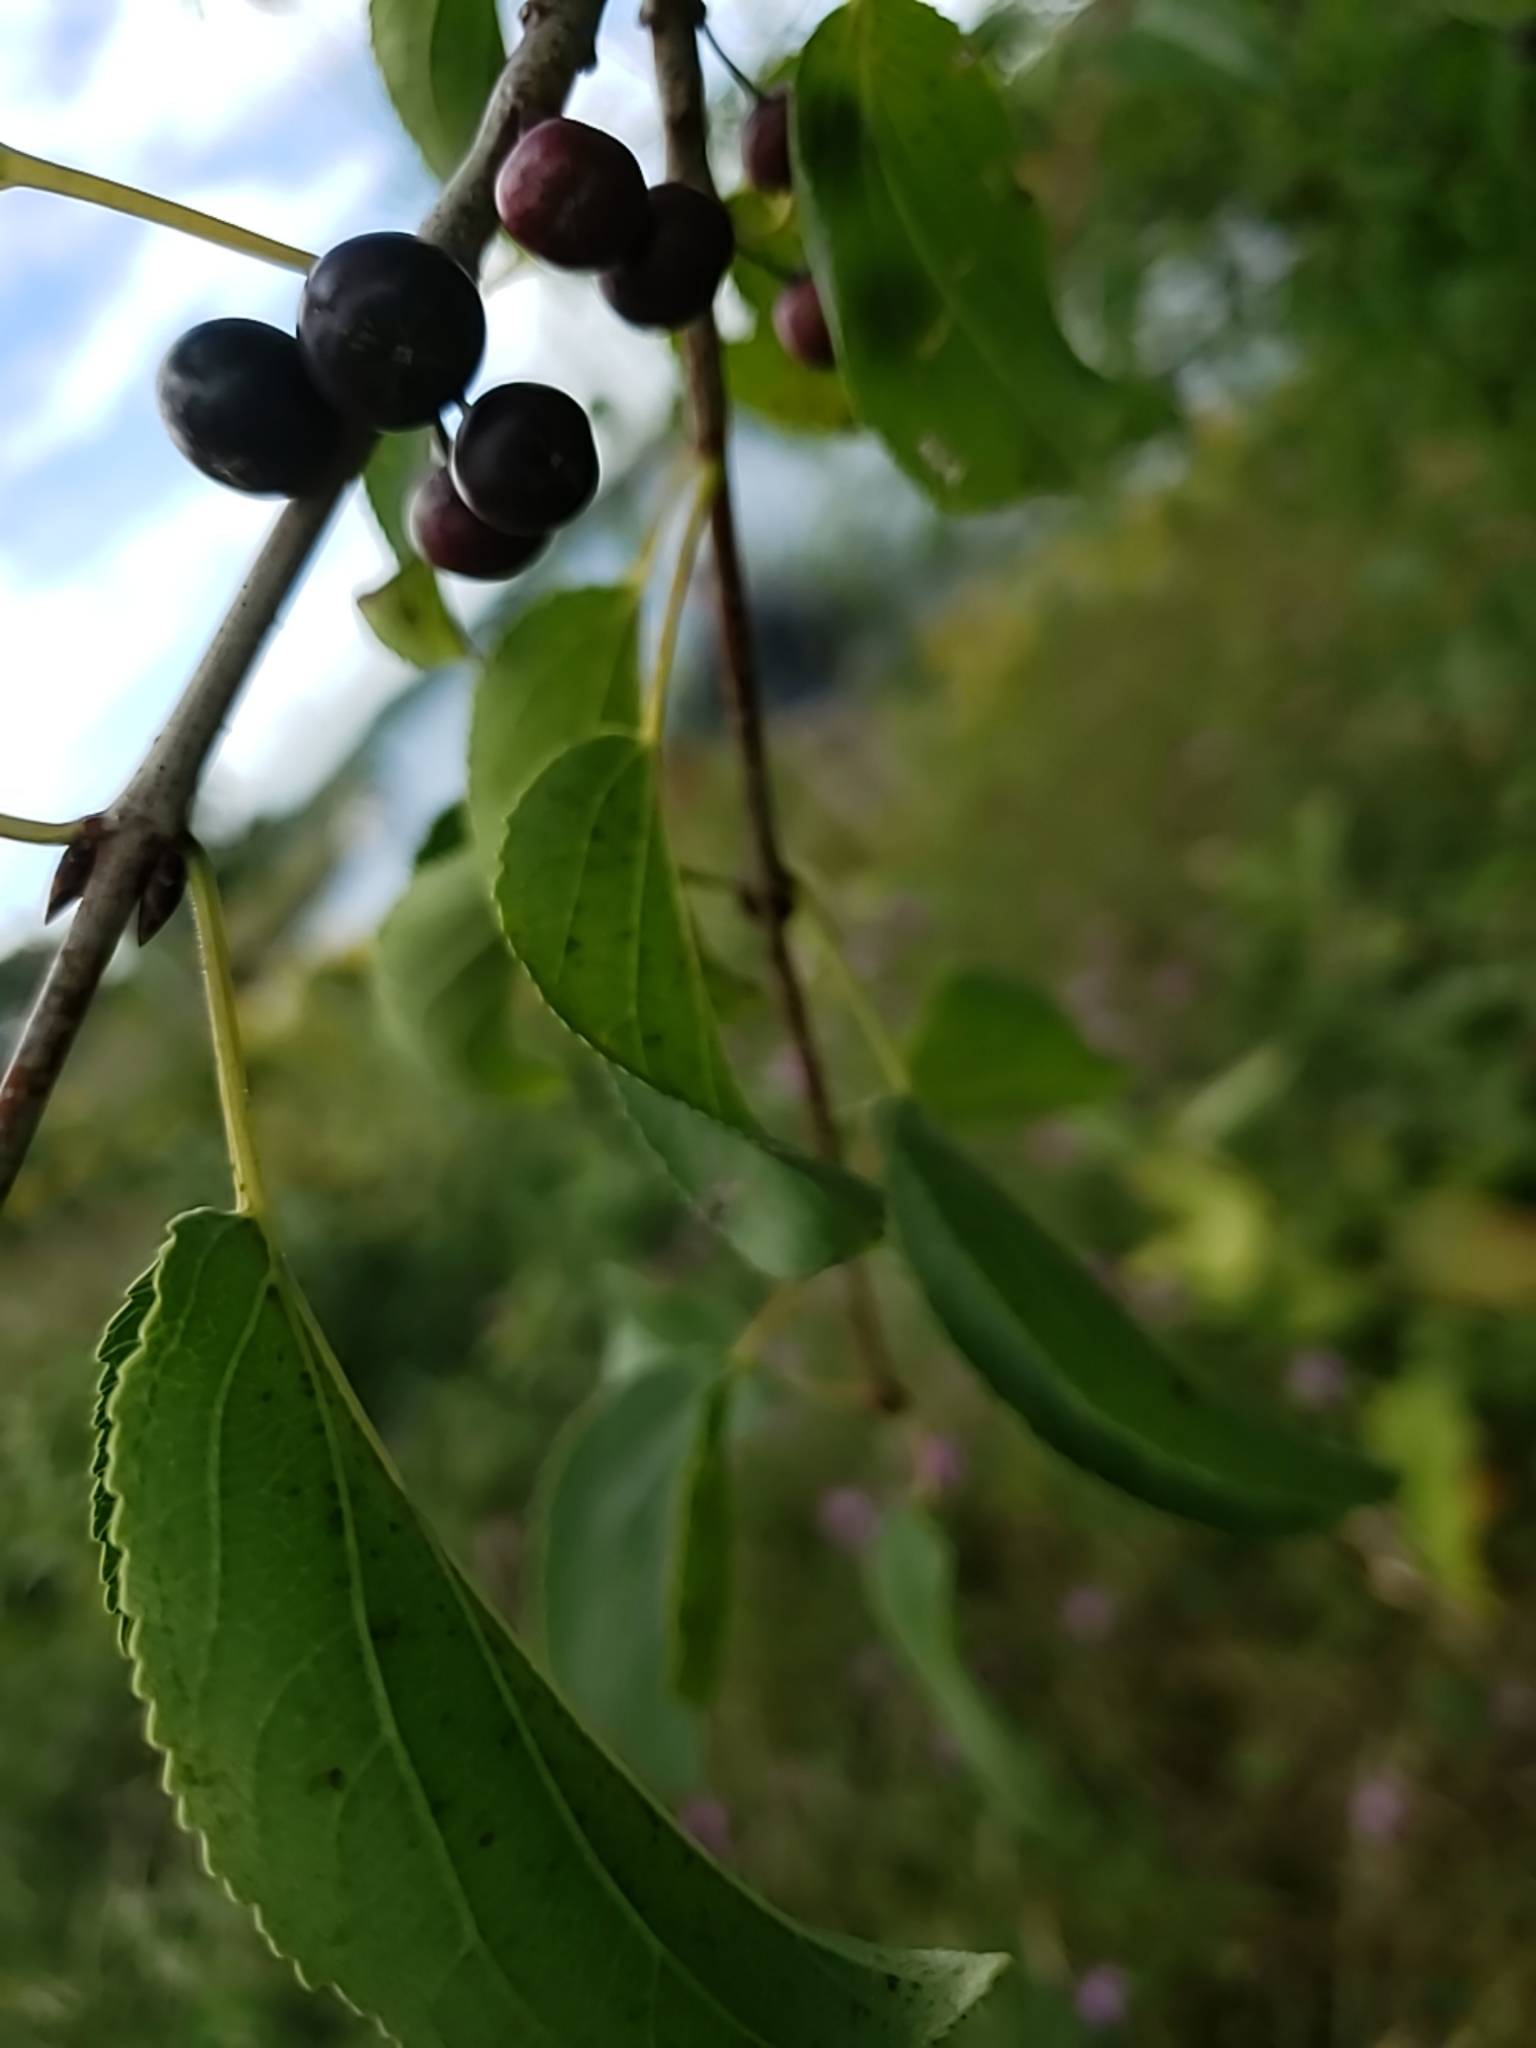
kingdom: Plantae
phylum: Tracheophyta
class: Magnoliopsida
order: Rosales
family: Rhamnaceae
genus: Rhamnus
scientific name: Rhamnus cathartica
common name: Common buckthorn
